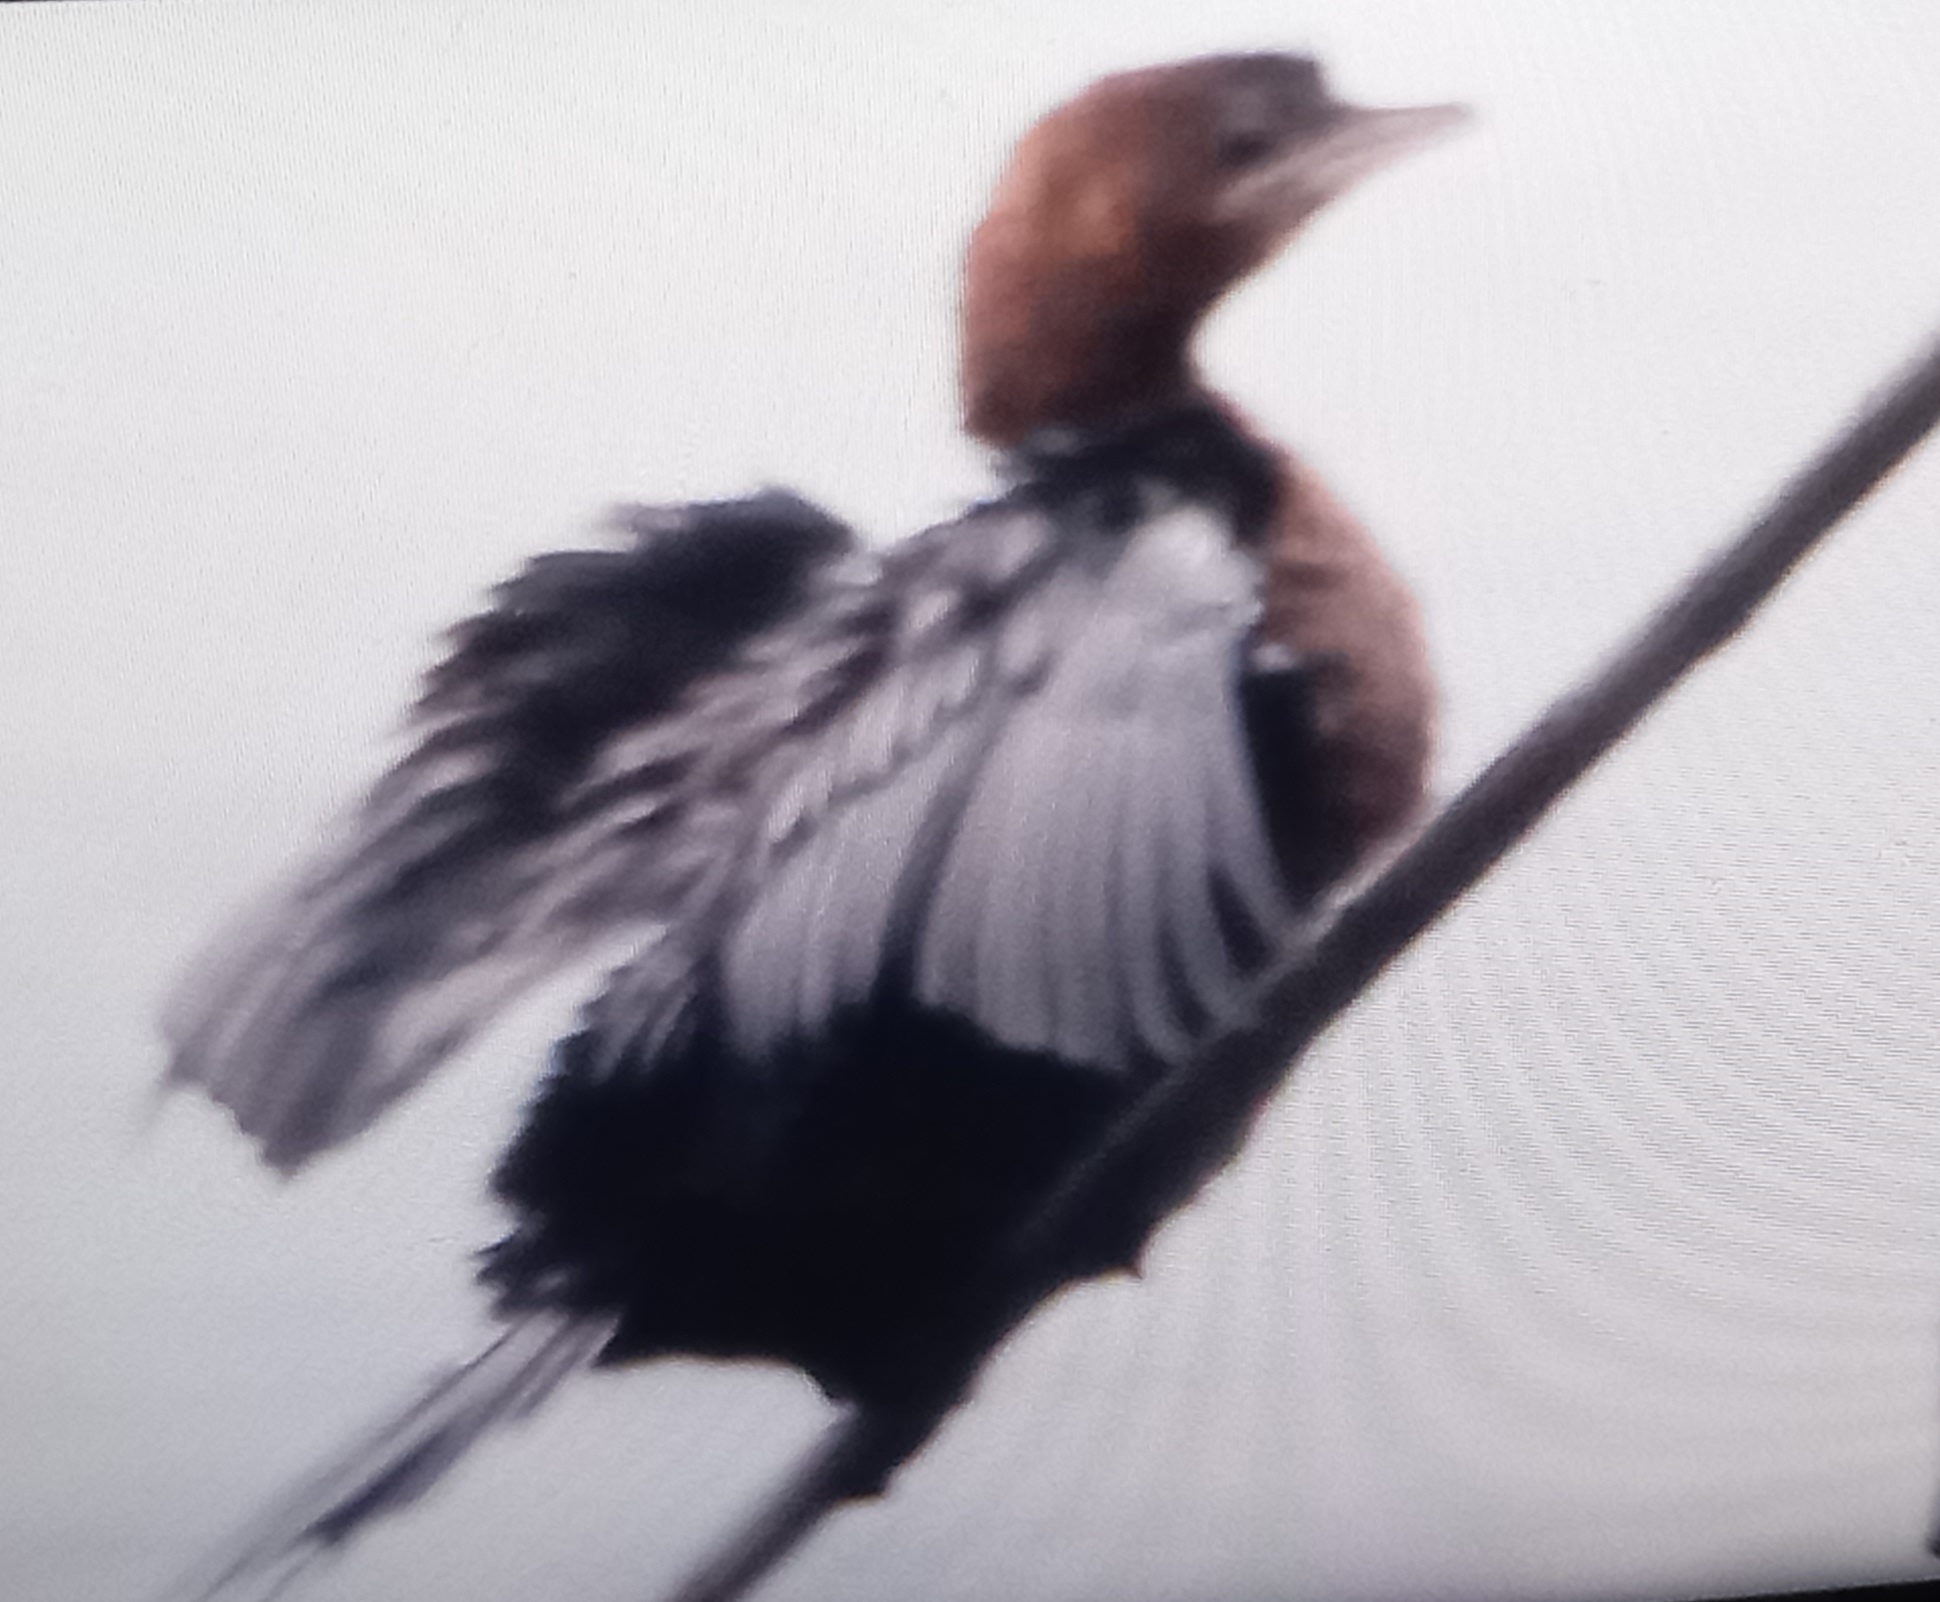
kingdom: Animalia
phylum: Chordata
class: Aves
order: Suliformes
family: Phalacrocoracidae
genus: Microcarbo
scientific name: Microcarbo pygmaeus
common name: Pygmy cormorant
